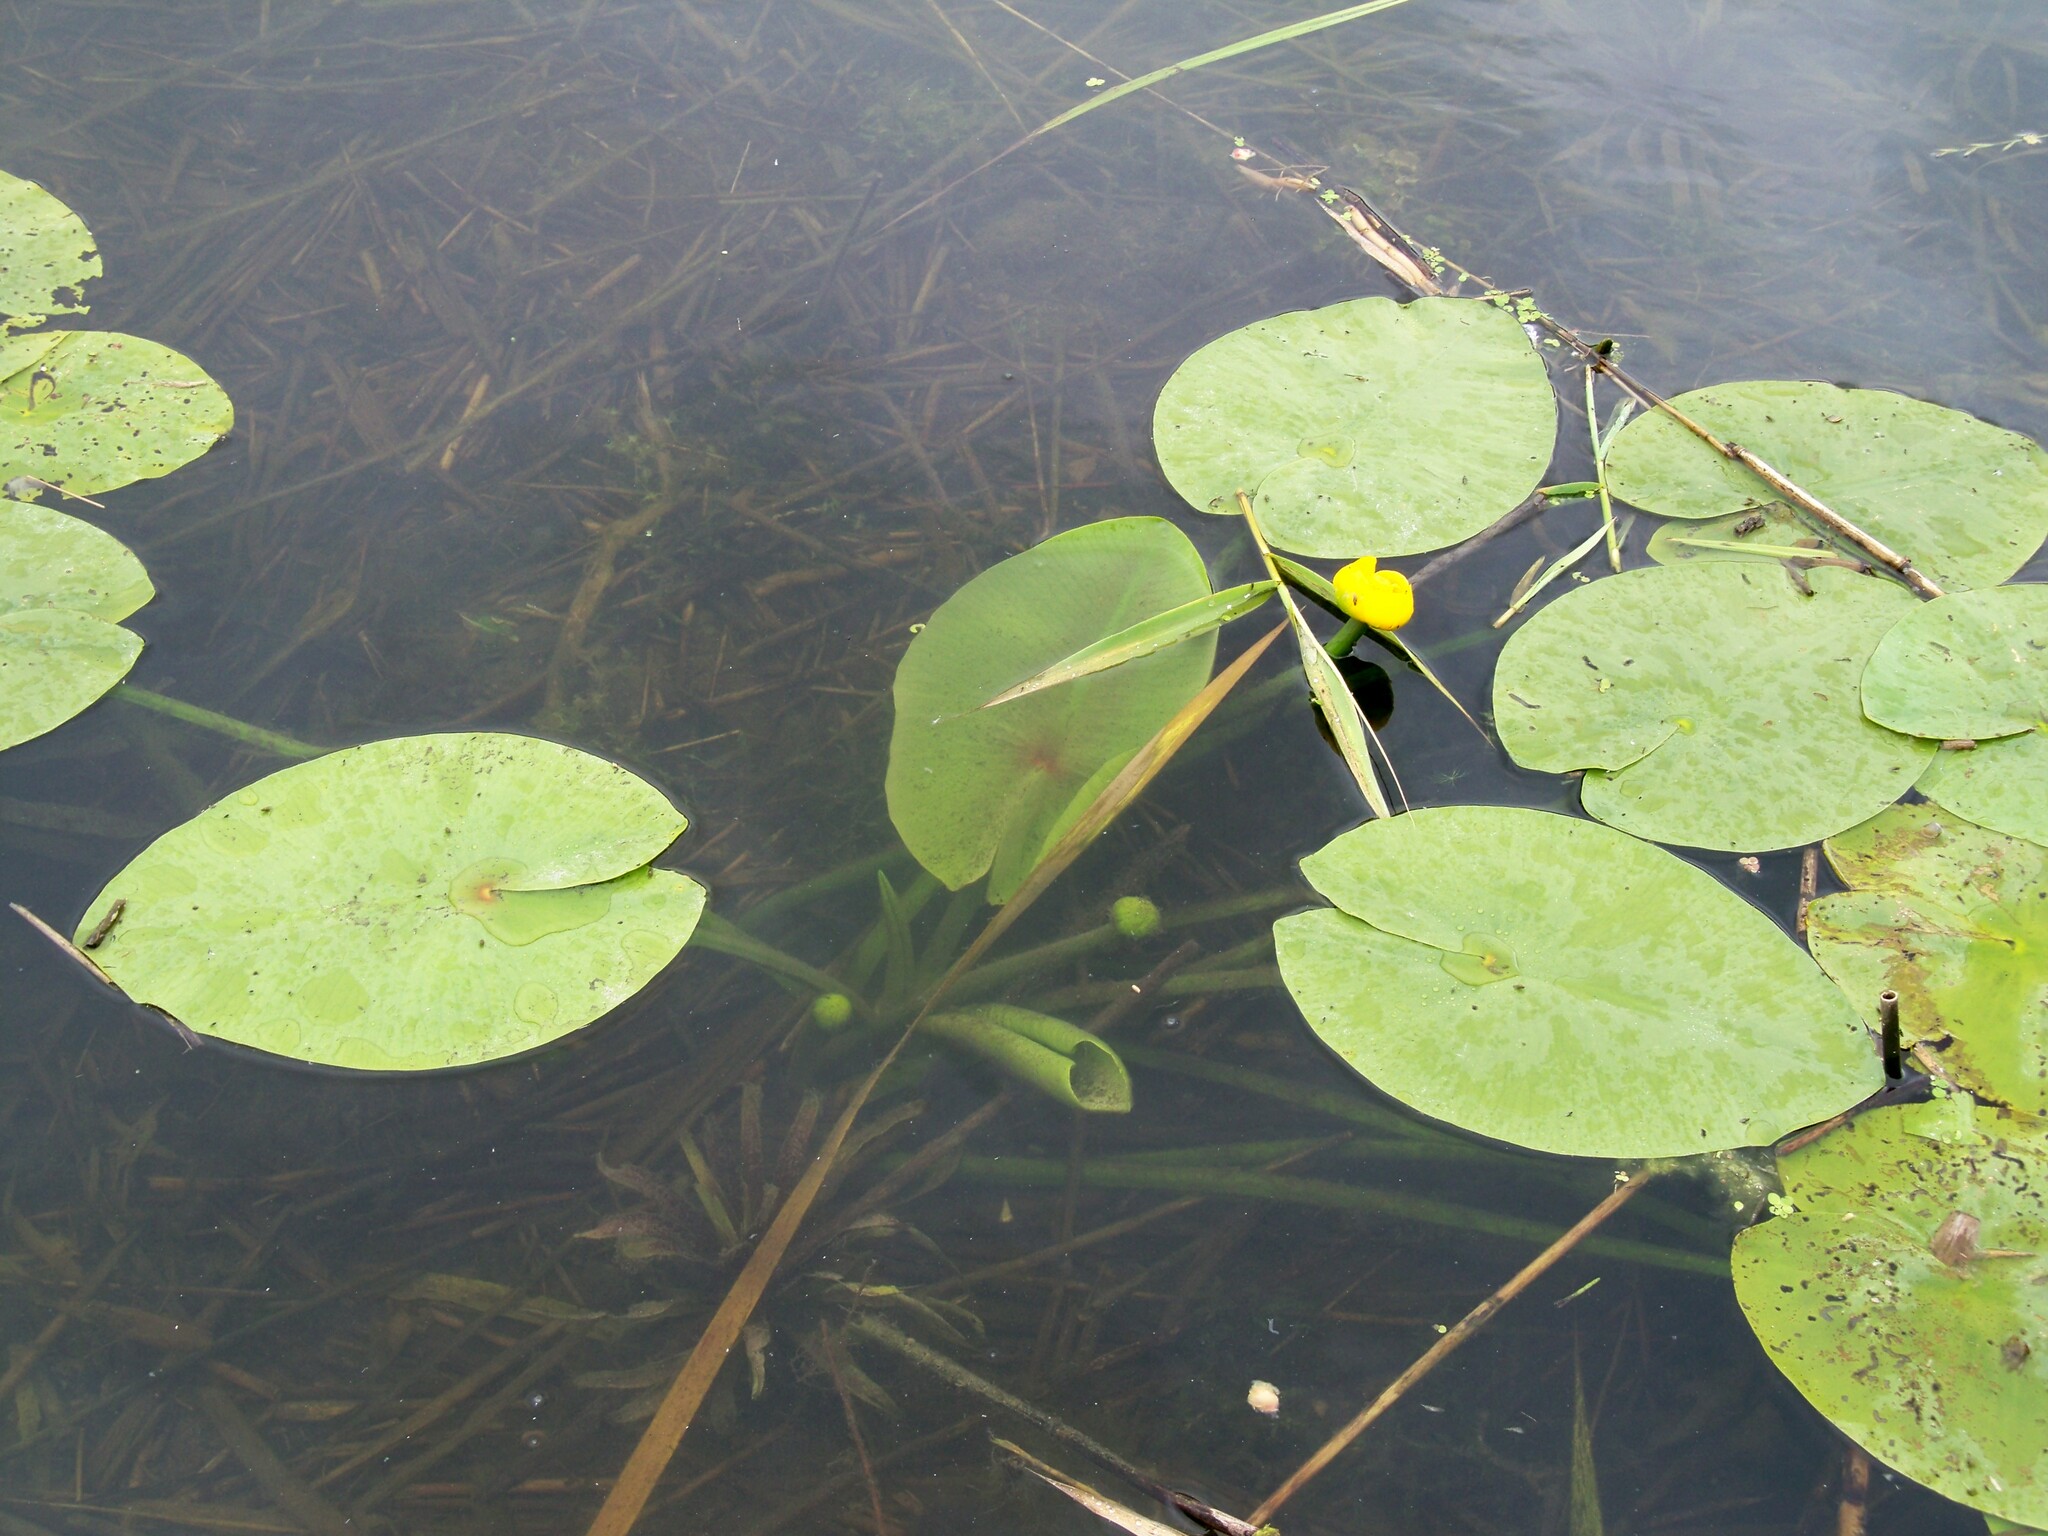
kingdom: Plantae
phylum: Tracheophyta
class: Magnoliopsida
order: Nymphaeales
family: Nymphaeaceae
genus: Nuphar
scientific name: Nuphar lutea
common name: Yellow water-lily
